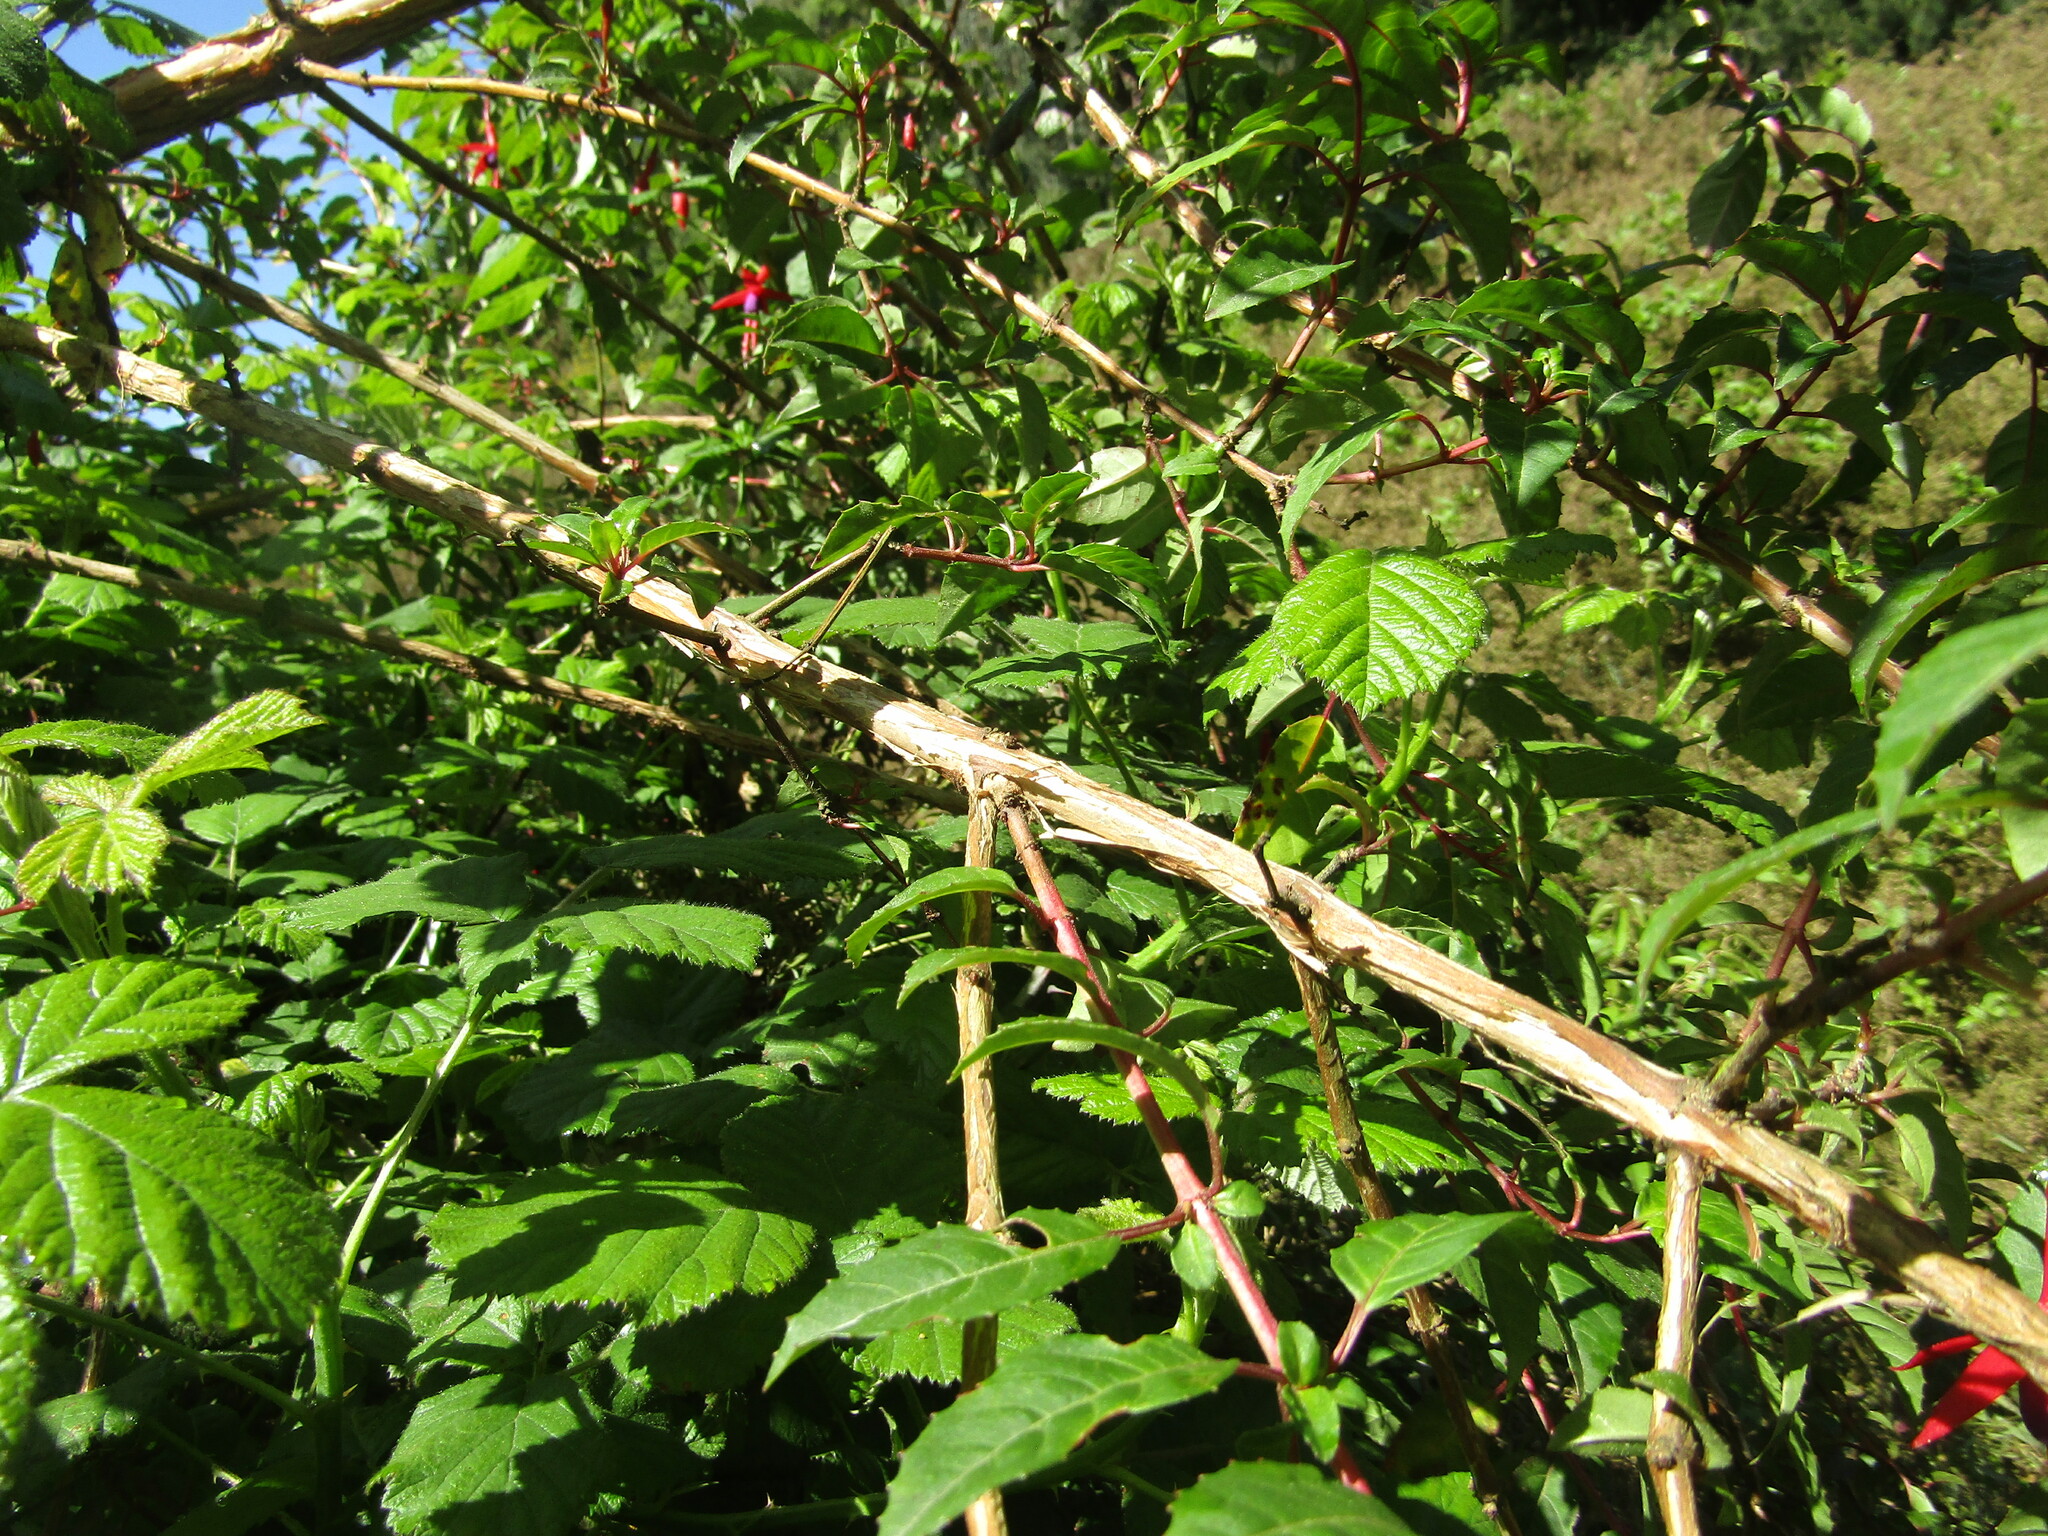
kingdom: Plantae
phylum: Tracheophyta
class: Magnoliopsida
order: Myrtales
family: Onagraceae
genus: Fuchsia
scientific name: Fuchsia magellanica
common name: Hardy fuchsia
